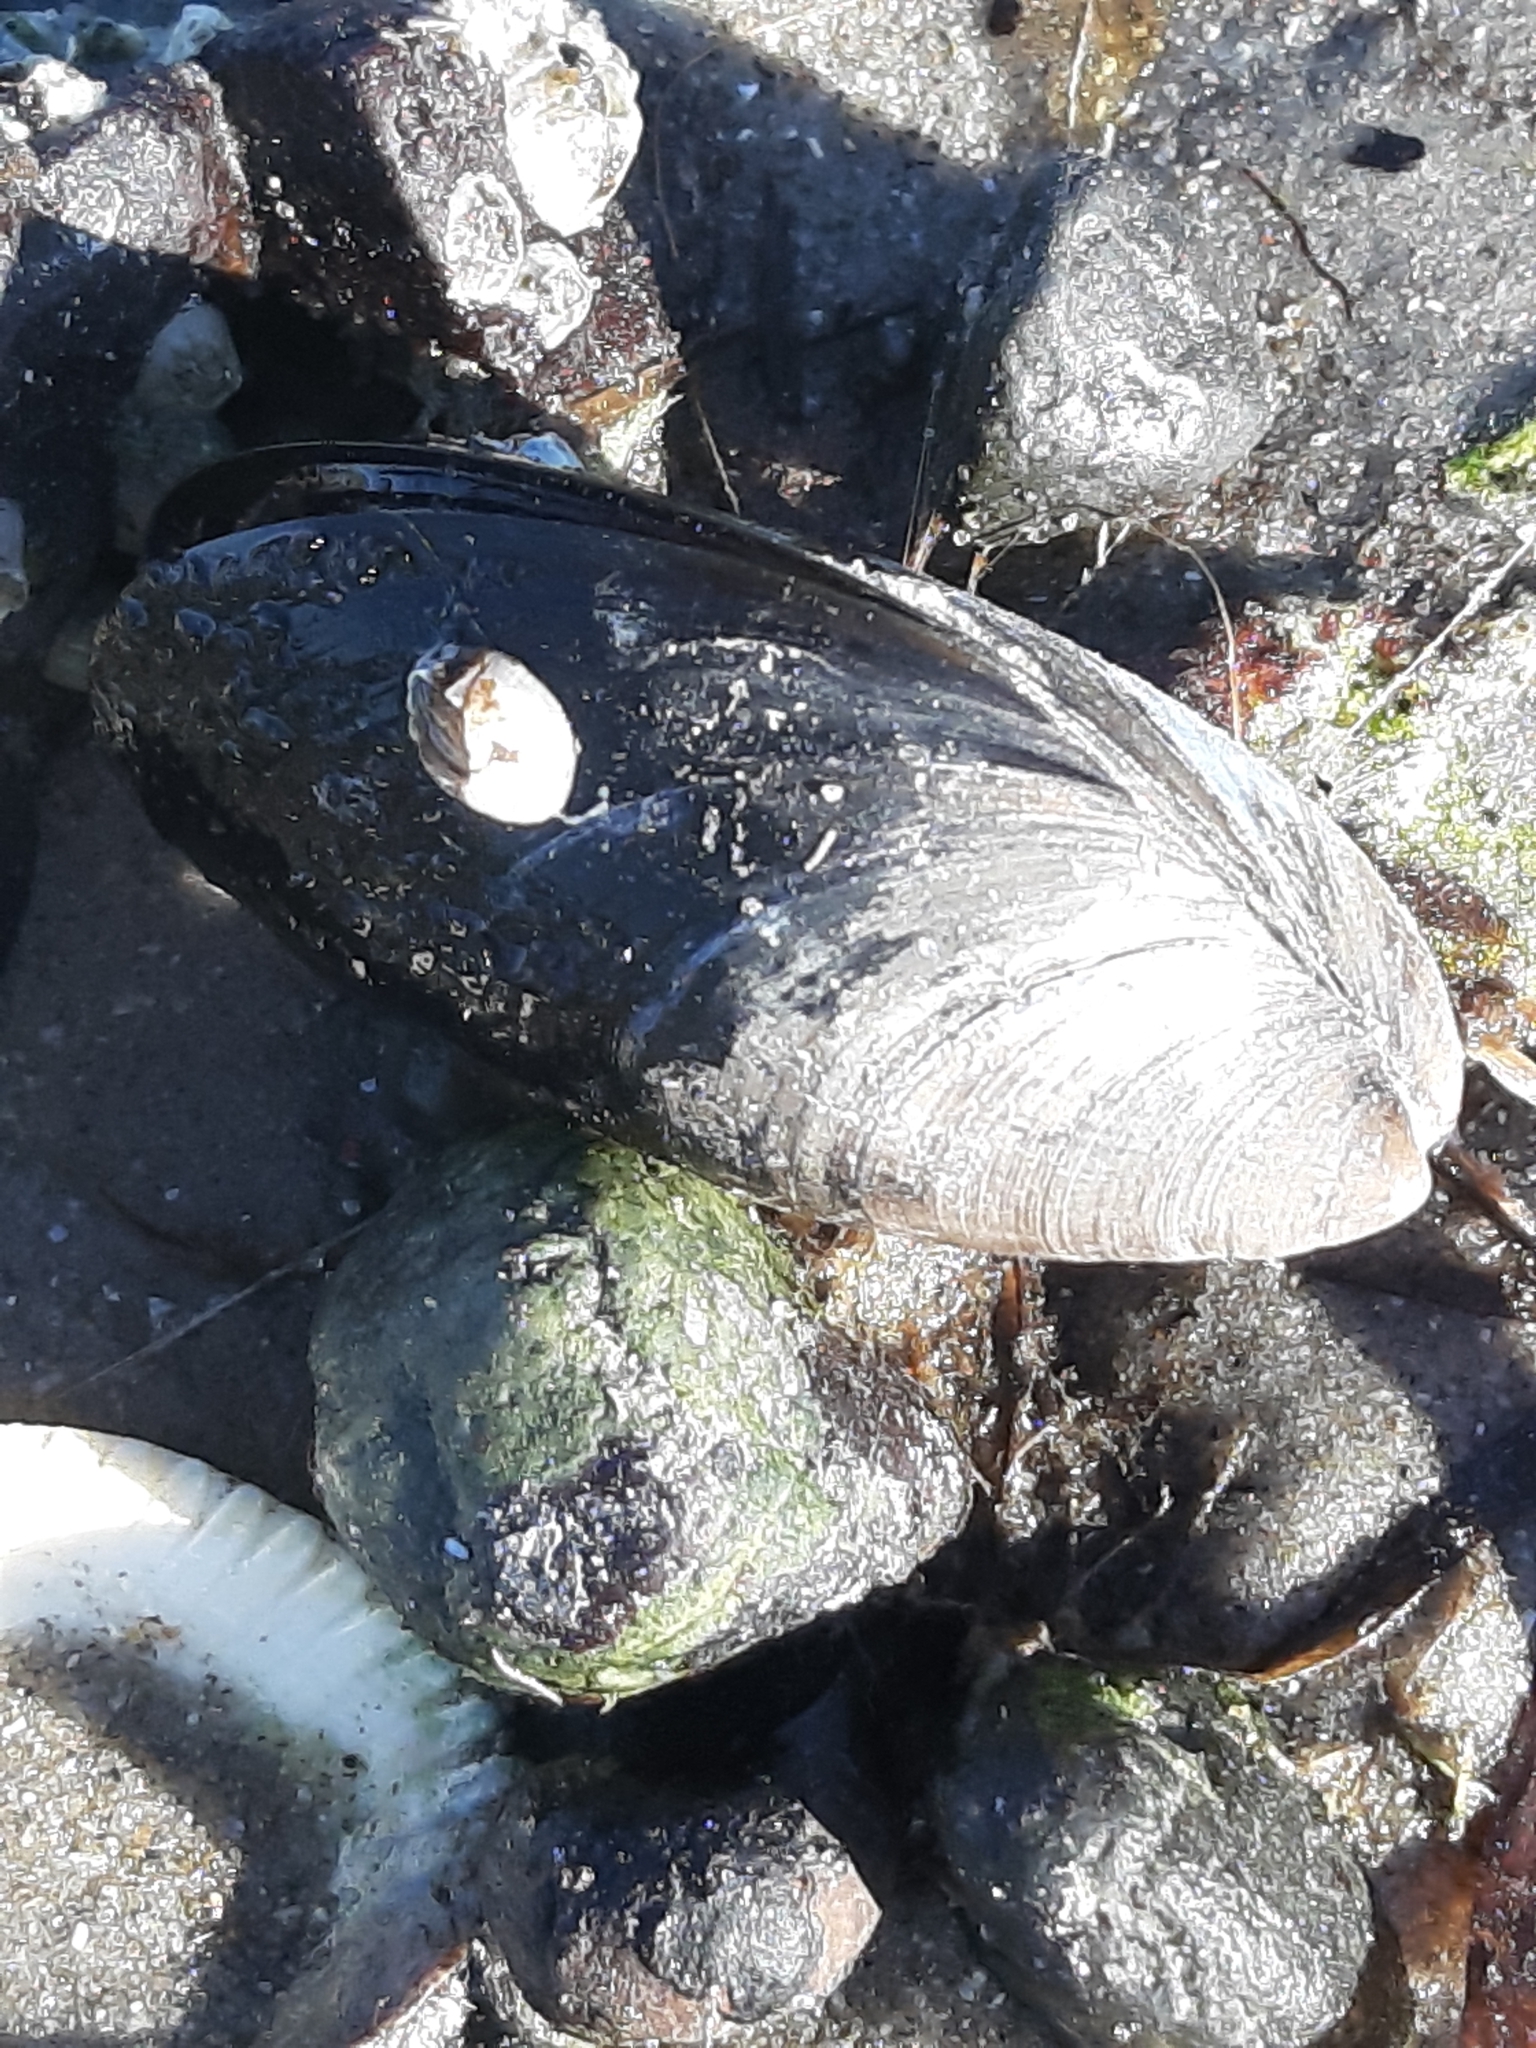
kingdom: Animalia
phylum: Mollusca
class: Bivalvia
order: Mytilida
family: Mytilidae
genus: Mytilus
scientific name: Mytilus edulis
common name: Blue mussel
